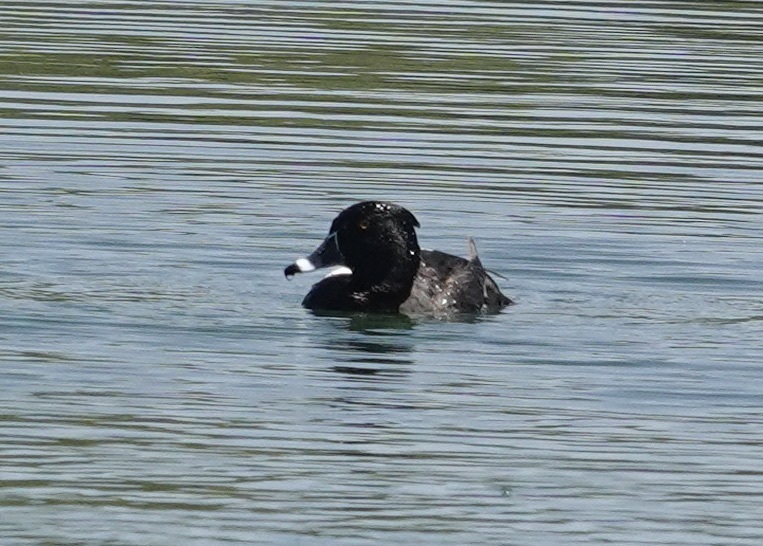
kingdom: Animalia
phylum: Chordata
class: Aves
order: Anseriformes
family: Anatidae
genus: Aythya
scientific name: Aythya collaris
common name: Ring-necked duck
